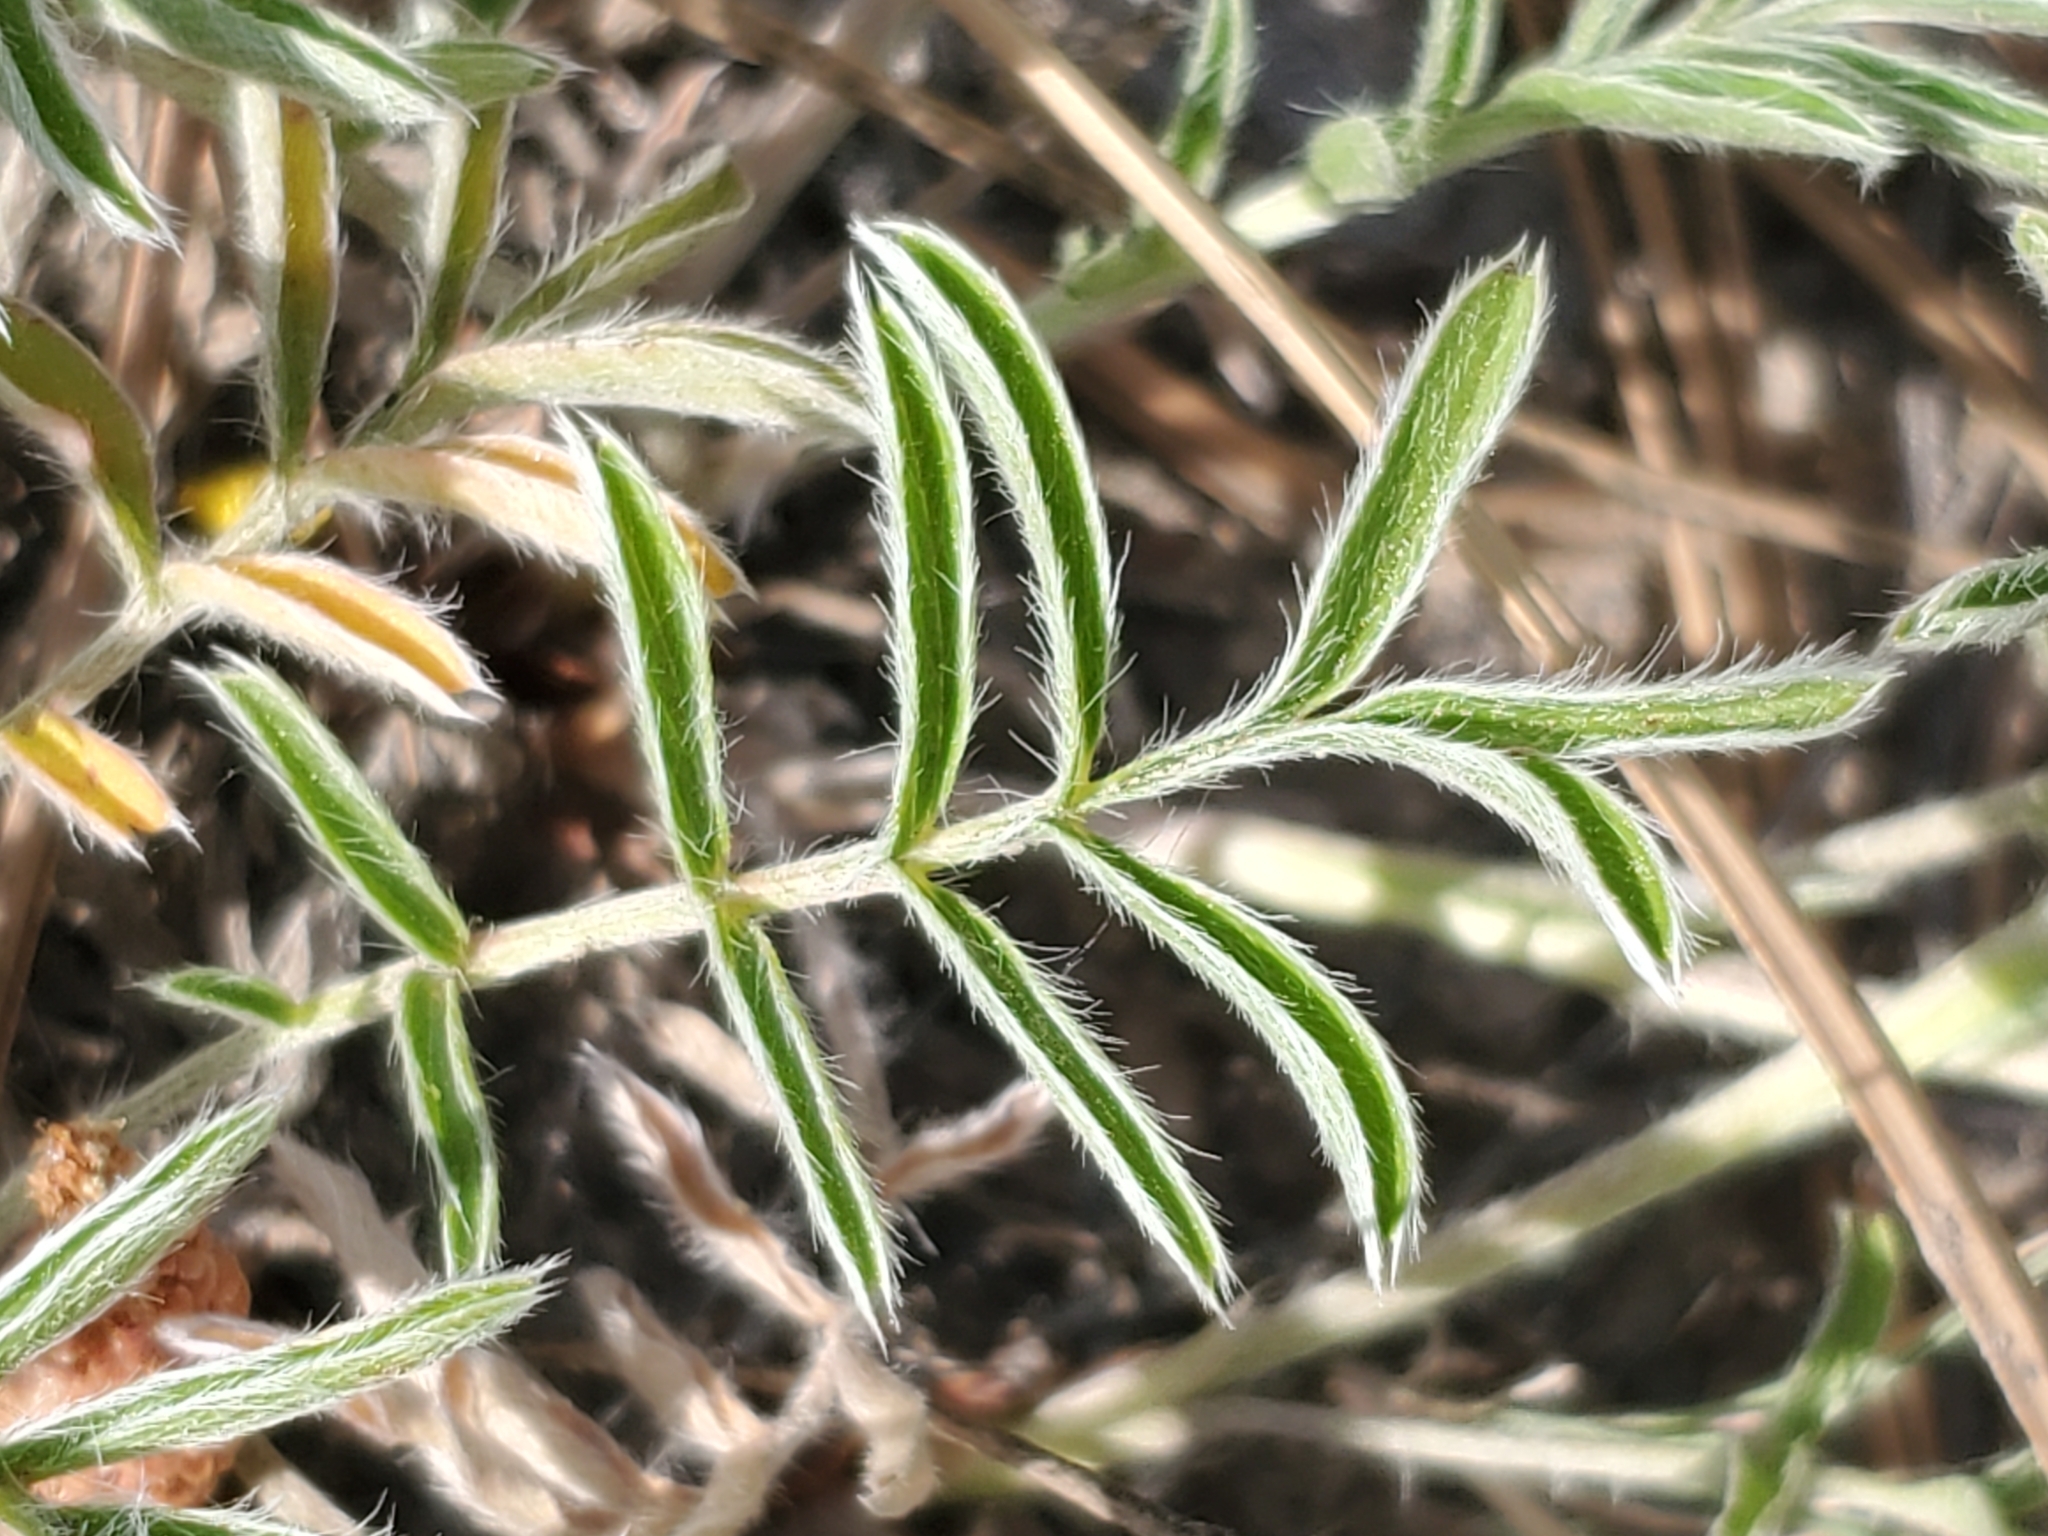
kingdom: Plantae
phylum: Tracheophyta
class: Magnoliopsida
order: Rosales
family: Rosaceae
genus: Potentilla
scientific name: Potentilla crinita
